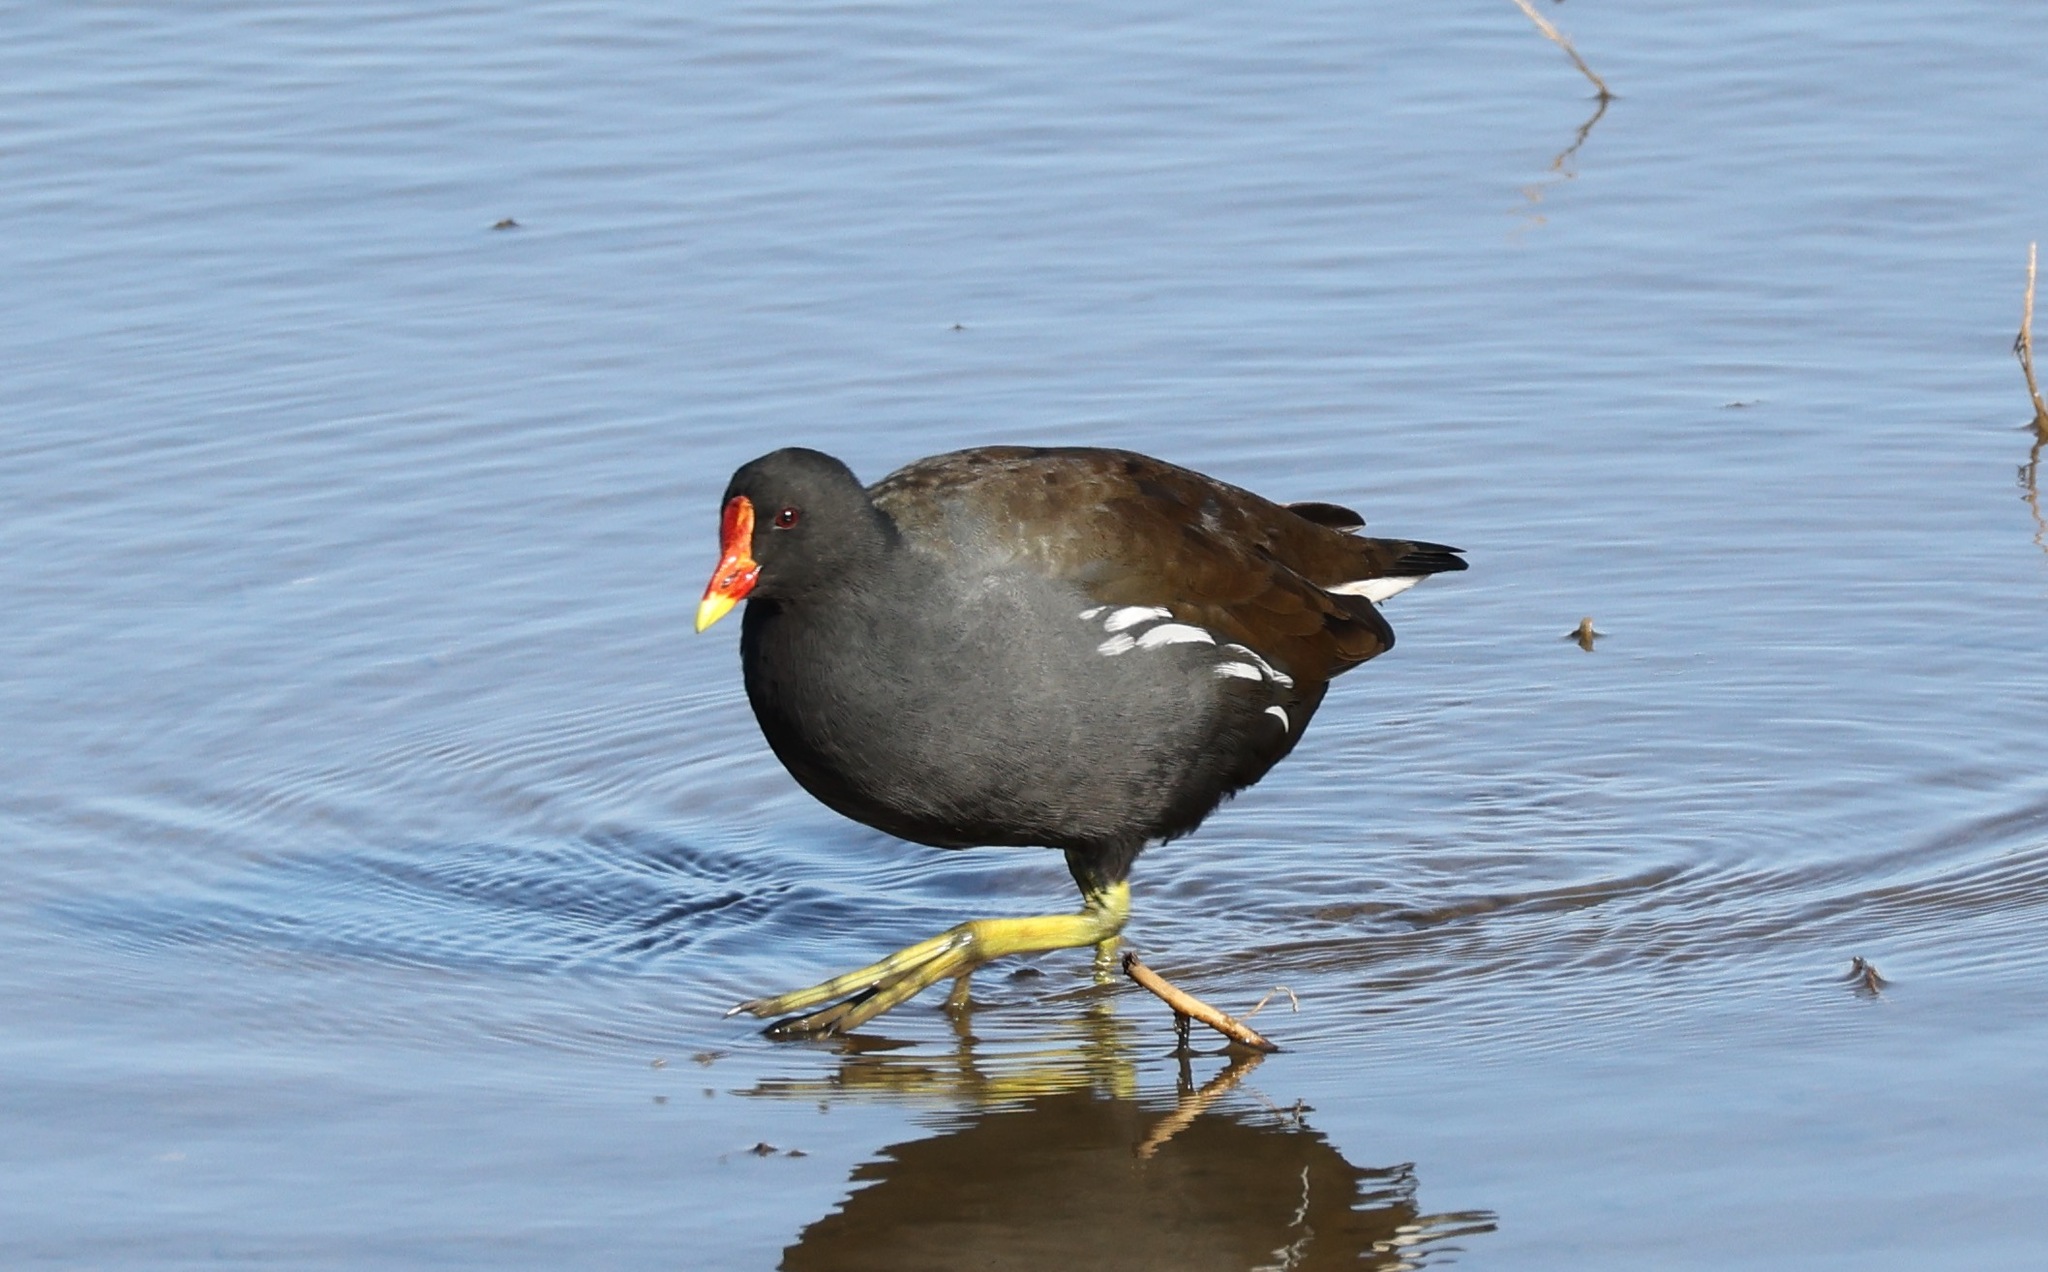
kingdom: Animalia
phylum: Chordata
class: Aves
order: Gruiformes
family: Rallidae
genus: Gallinula
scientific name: Gallinula chloropus
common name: Common moorhen
